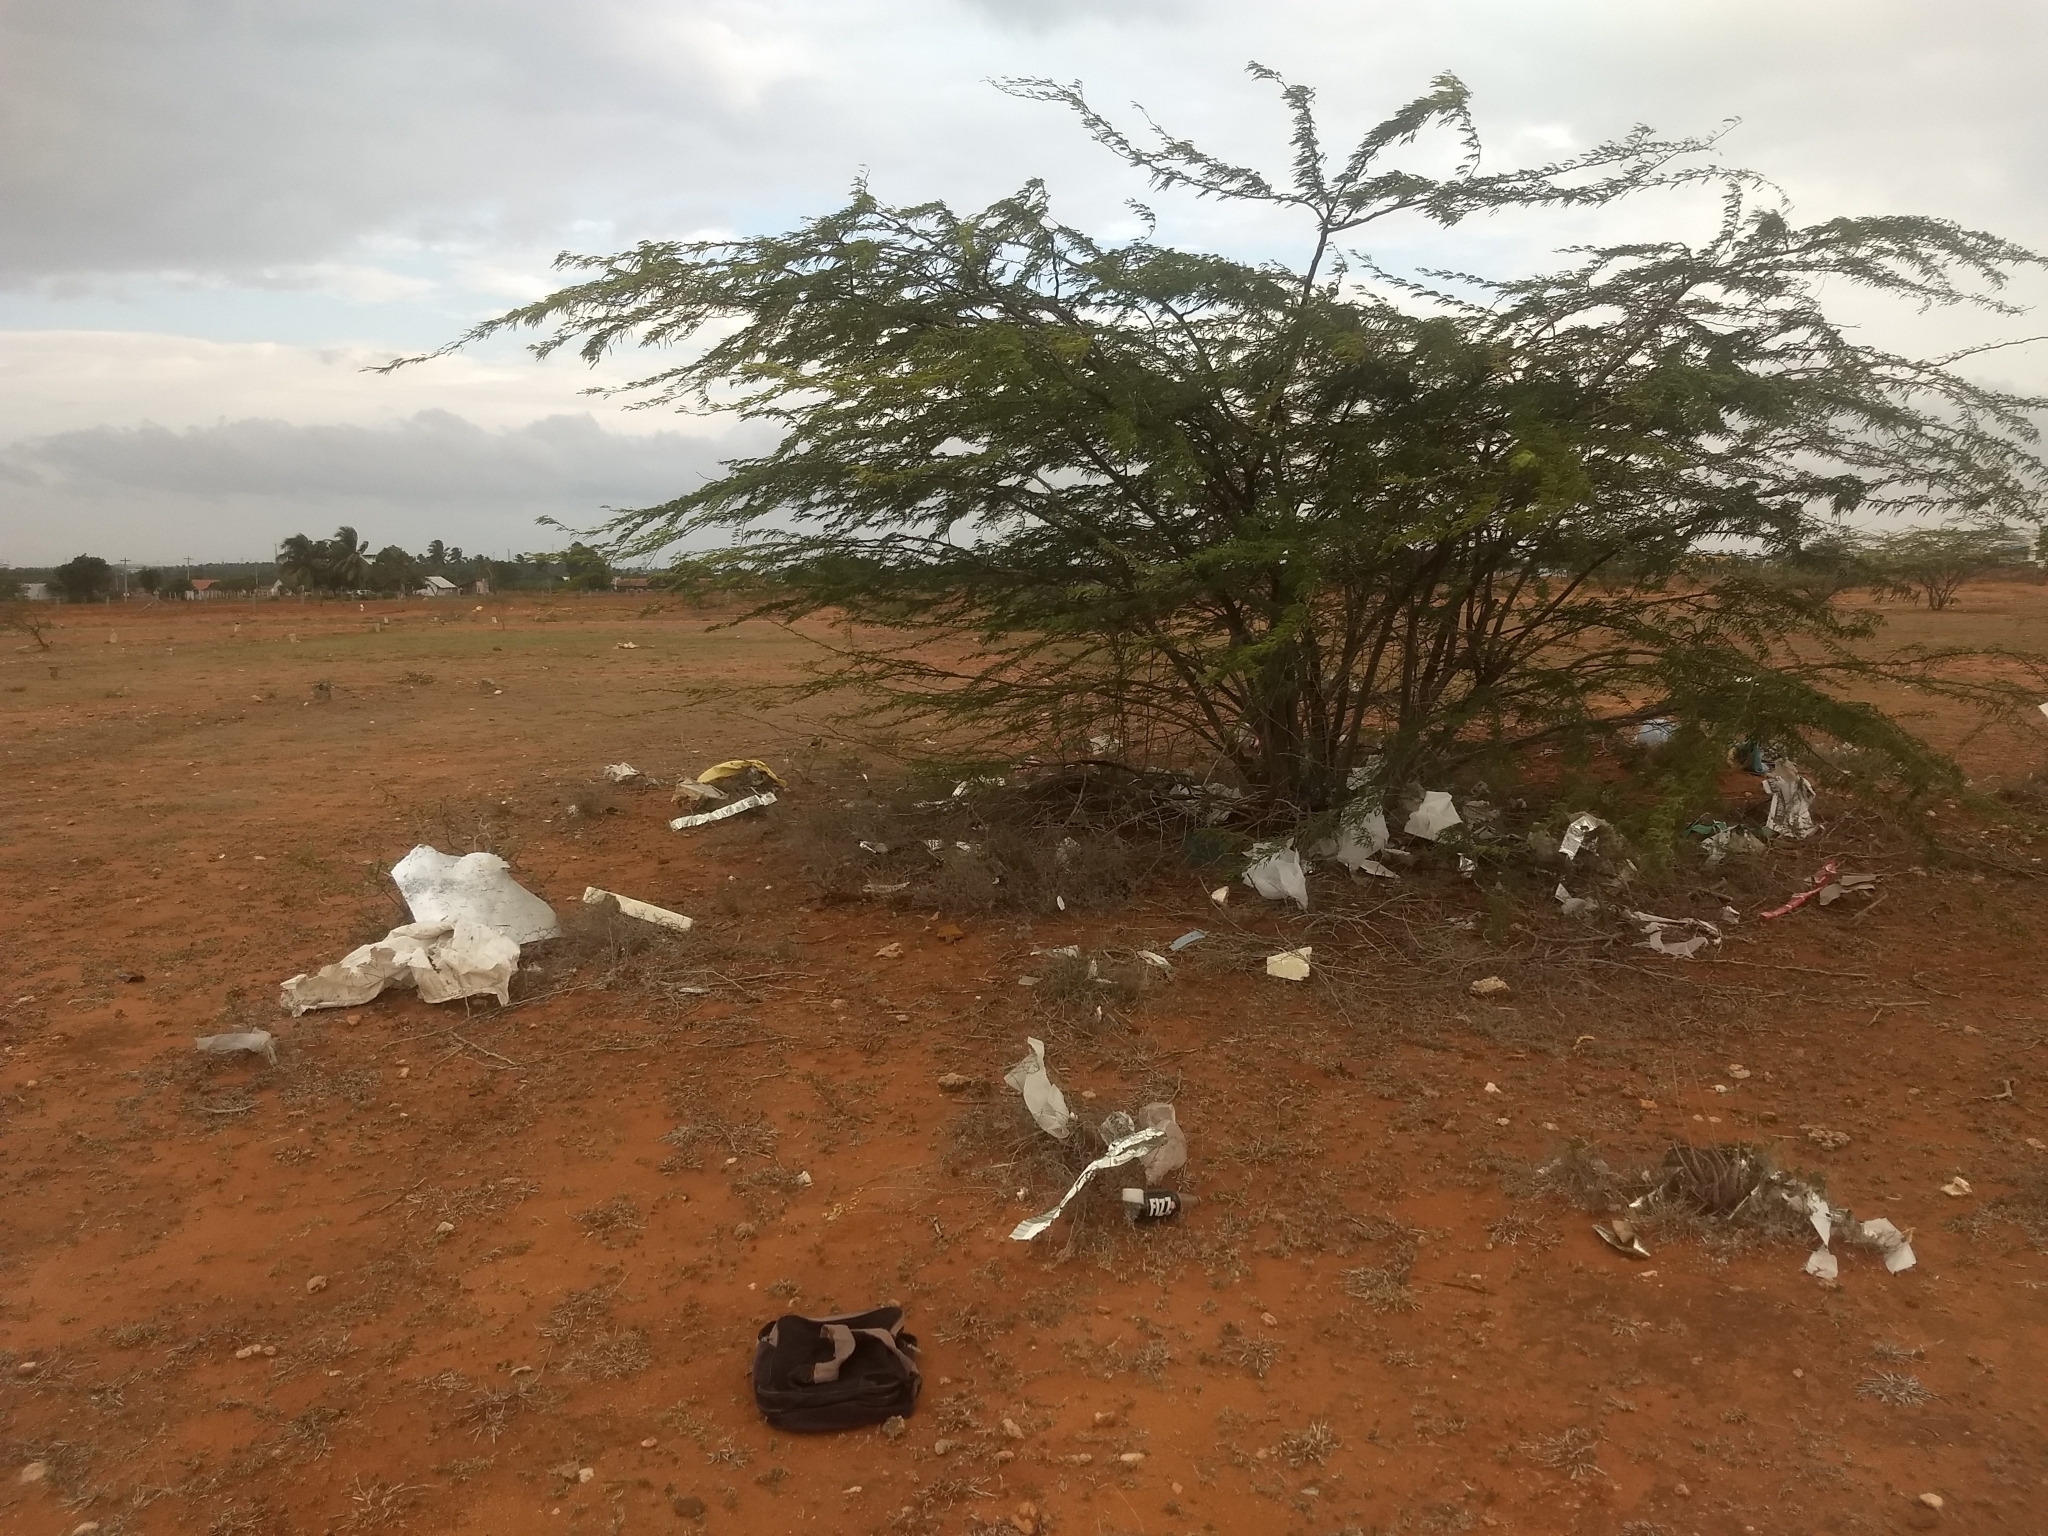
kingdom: Plantae
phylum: Tracheophyta
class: Magnoliopsida
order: Fabales
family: Fabaceae
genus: Prosopis
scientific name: Prosopis juliflora
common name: Mesquite
